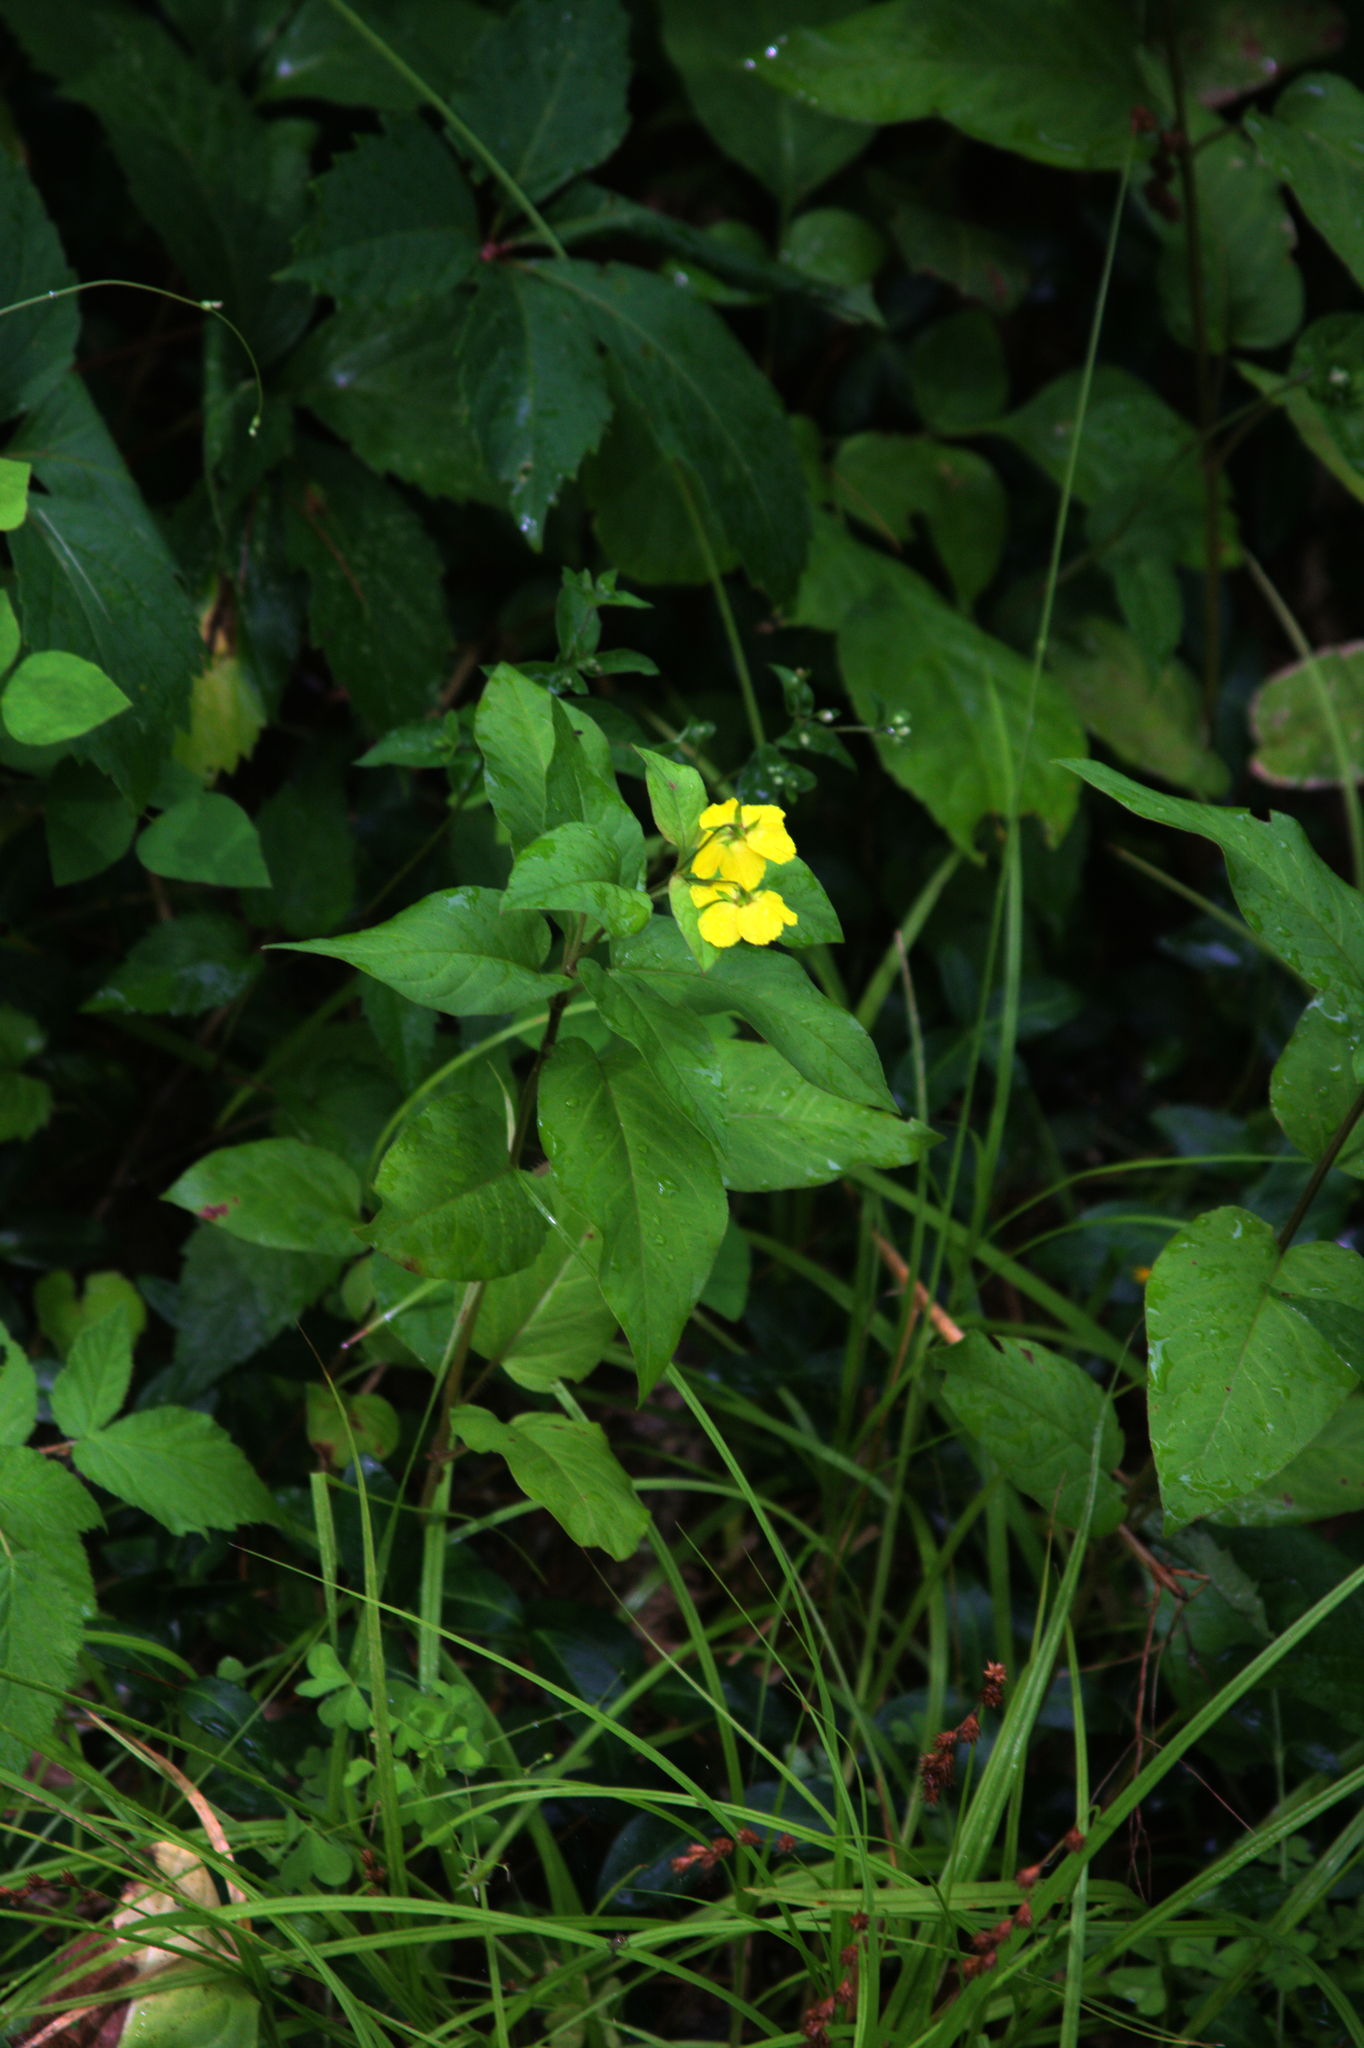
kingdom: Plantae
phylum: Tracheophyta
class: Magnoliopsida
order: Ericales
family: Primulaceae
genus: Lysimachia
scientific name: Lysimachia ciliata
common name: Fringed loosestrife
